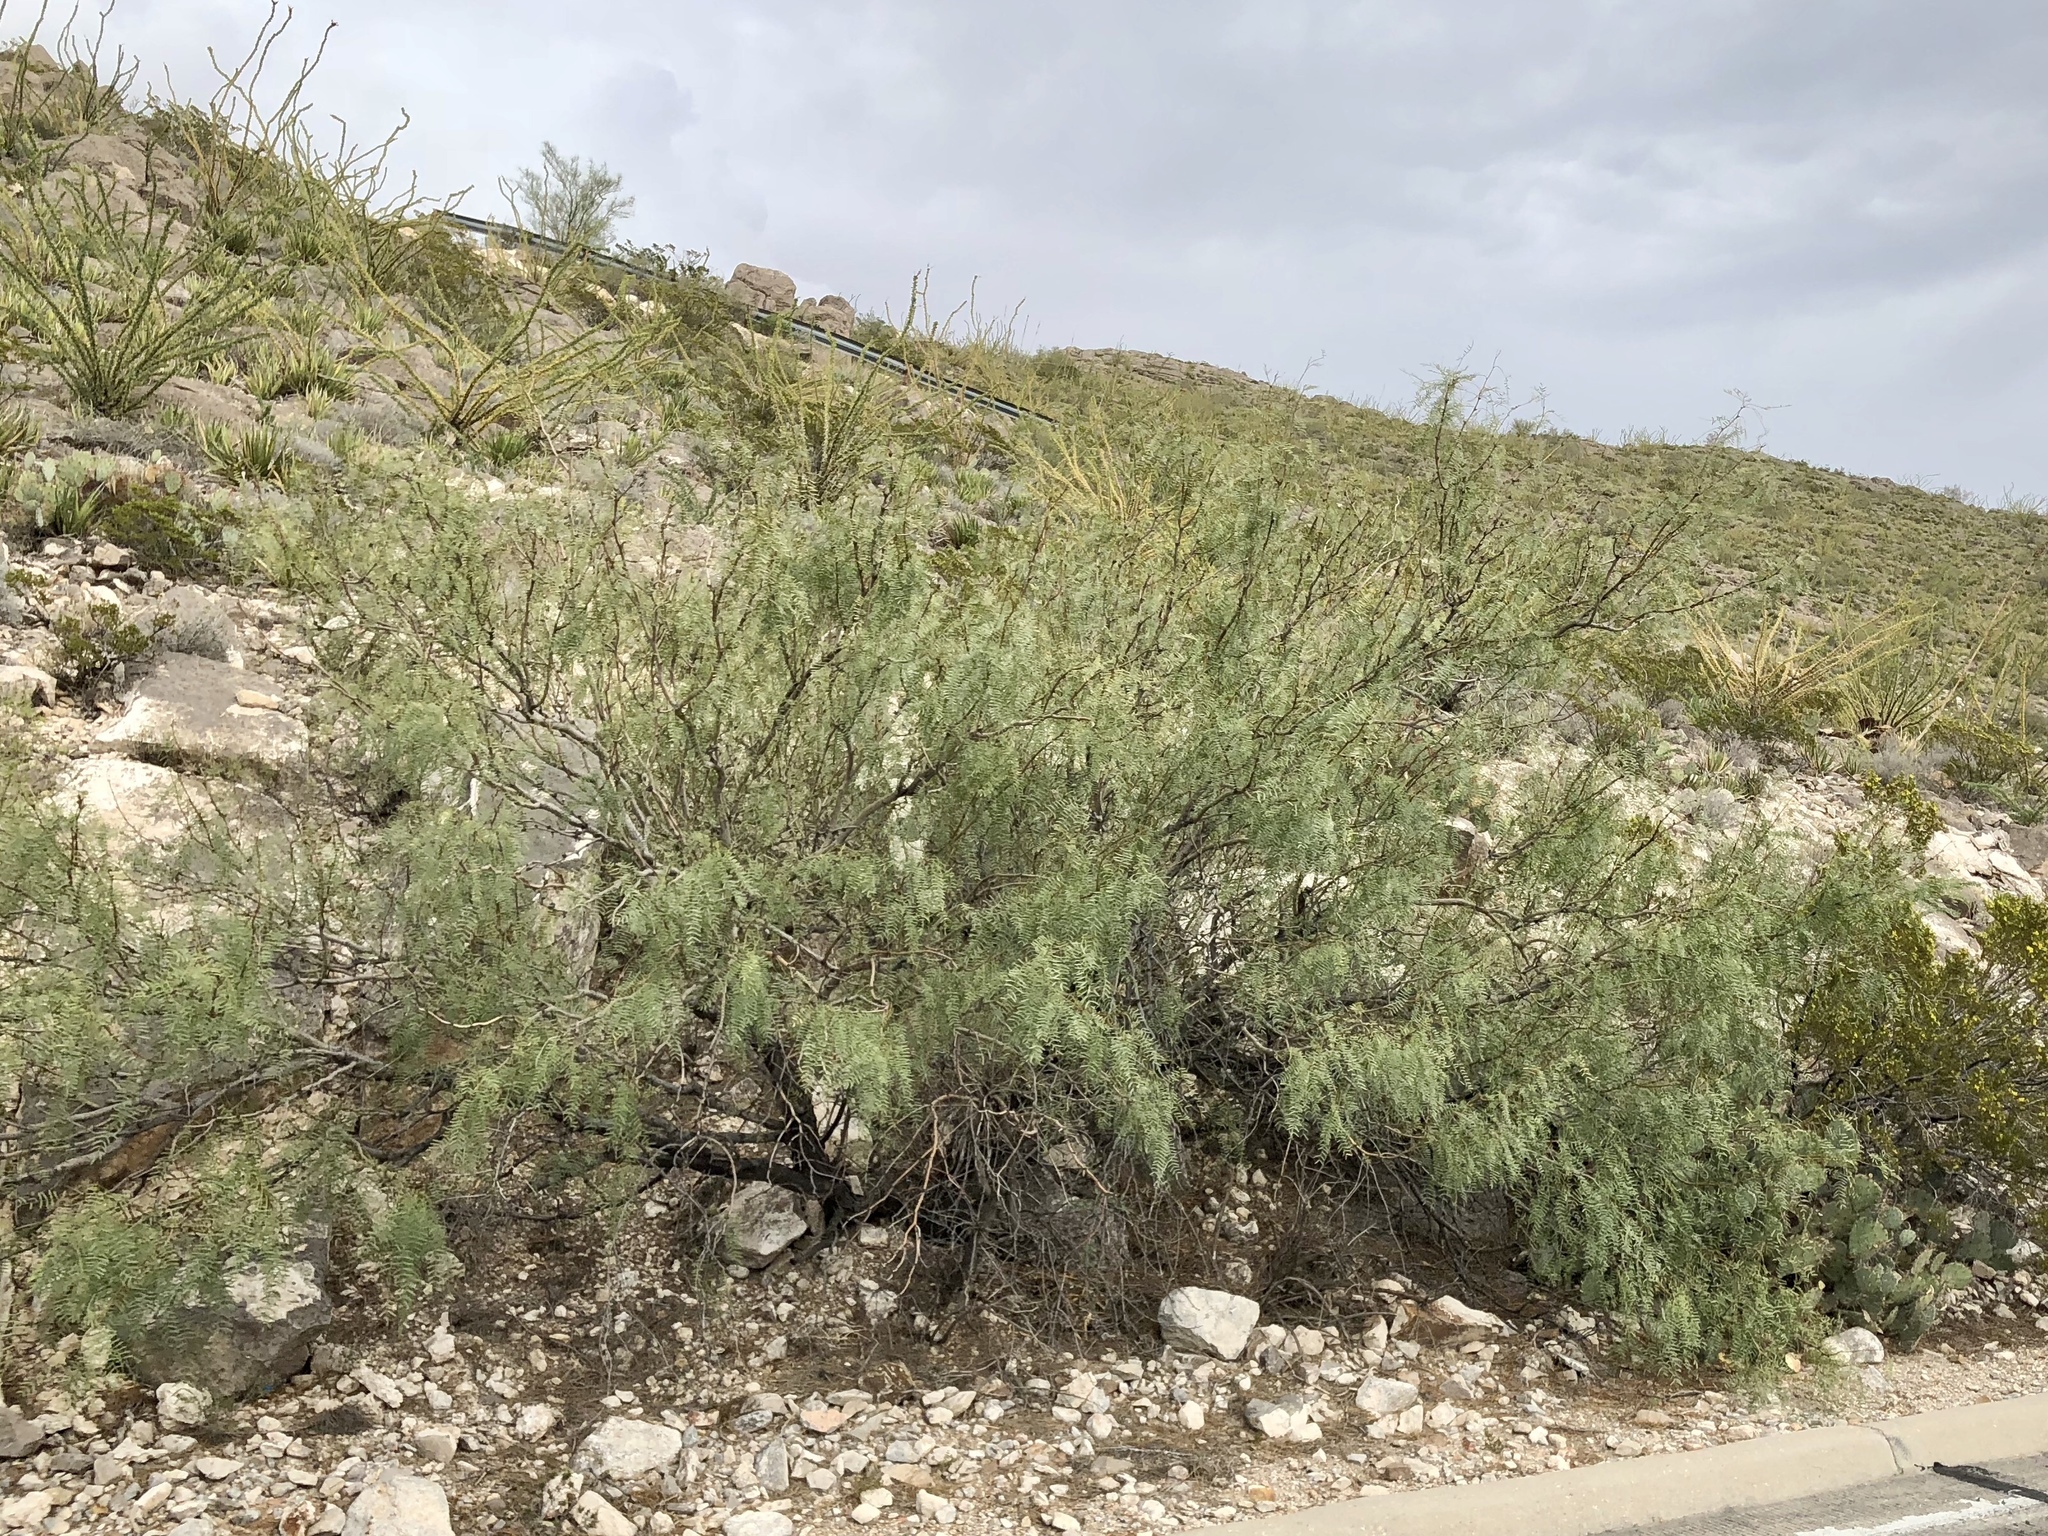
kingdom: Plantae
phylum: Tracheophyta
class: Magnoliopsida
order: Fabales
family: Fabaceae
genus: Prosopis
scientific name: Prosopis glandulosa
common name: Honey mesquite
